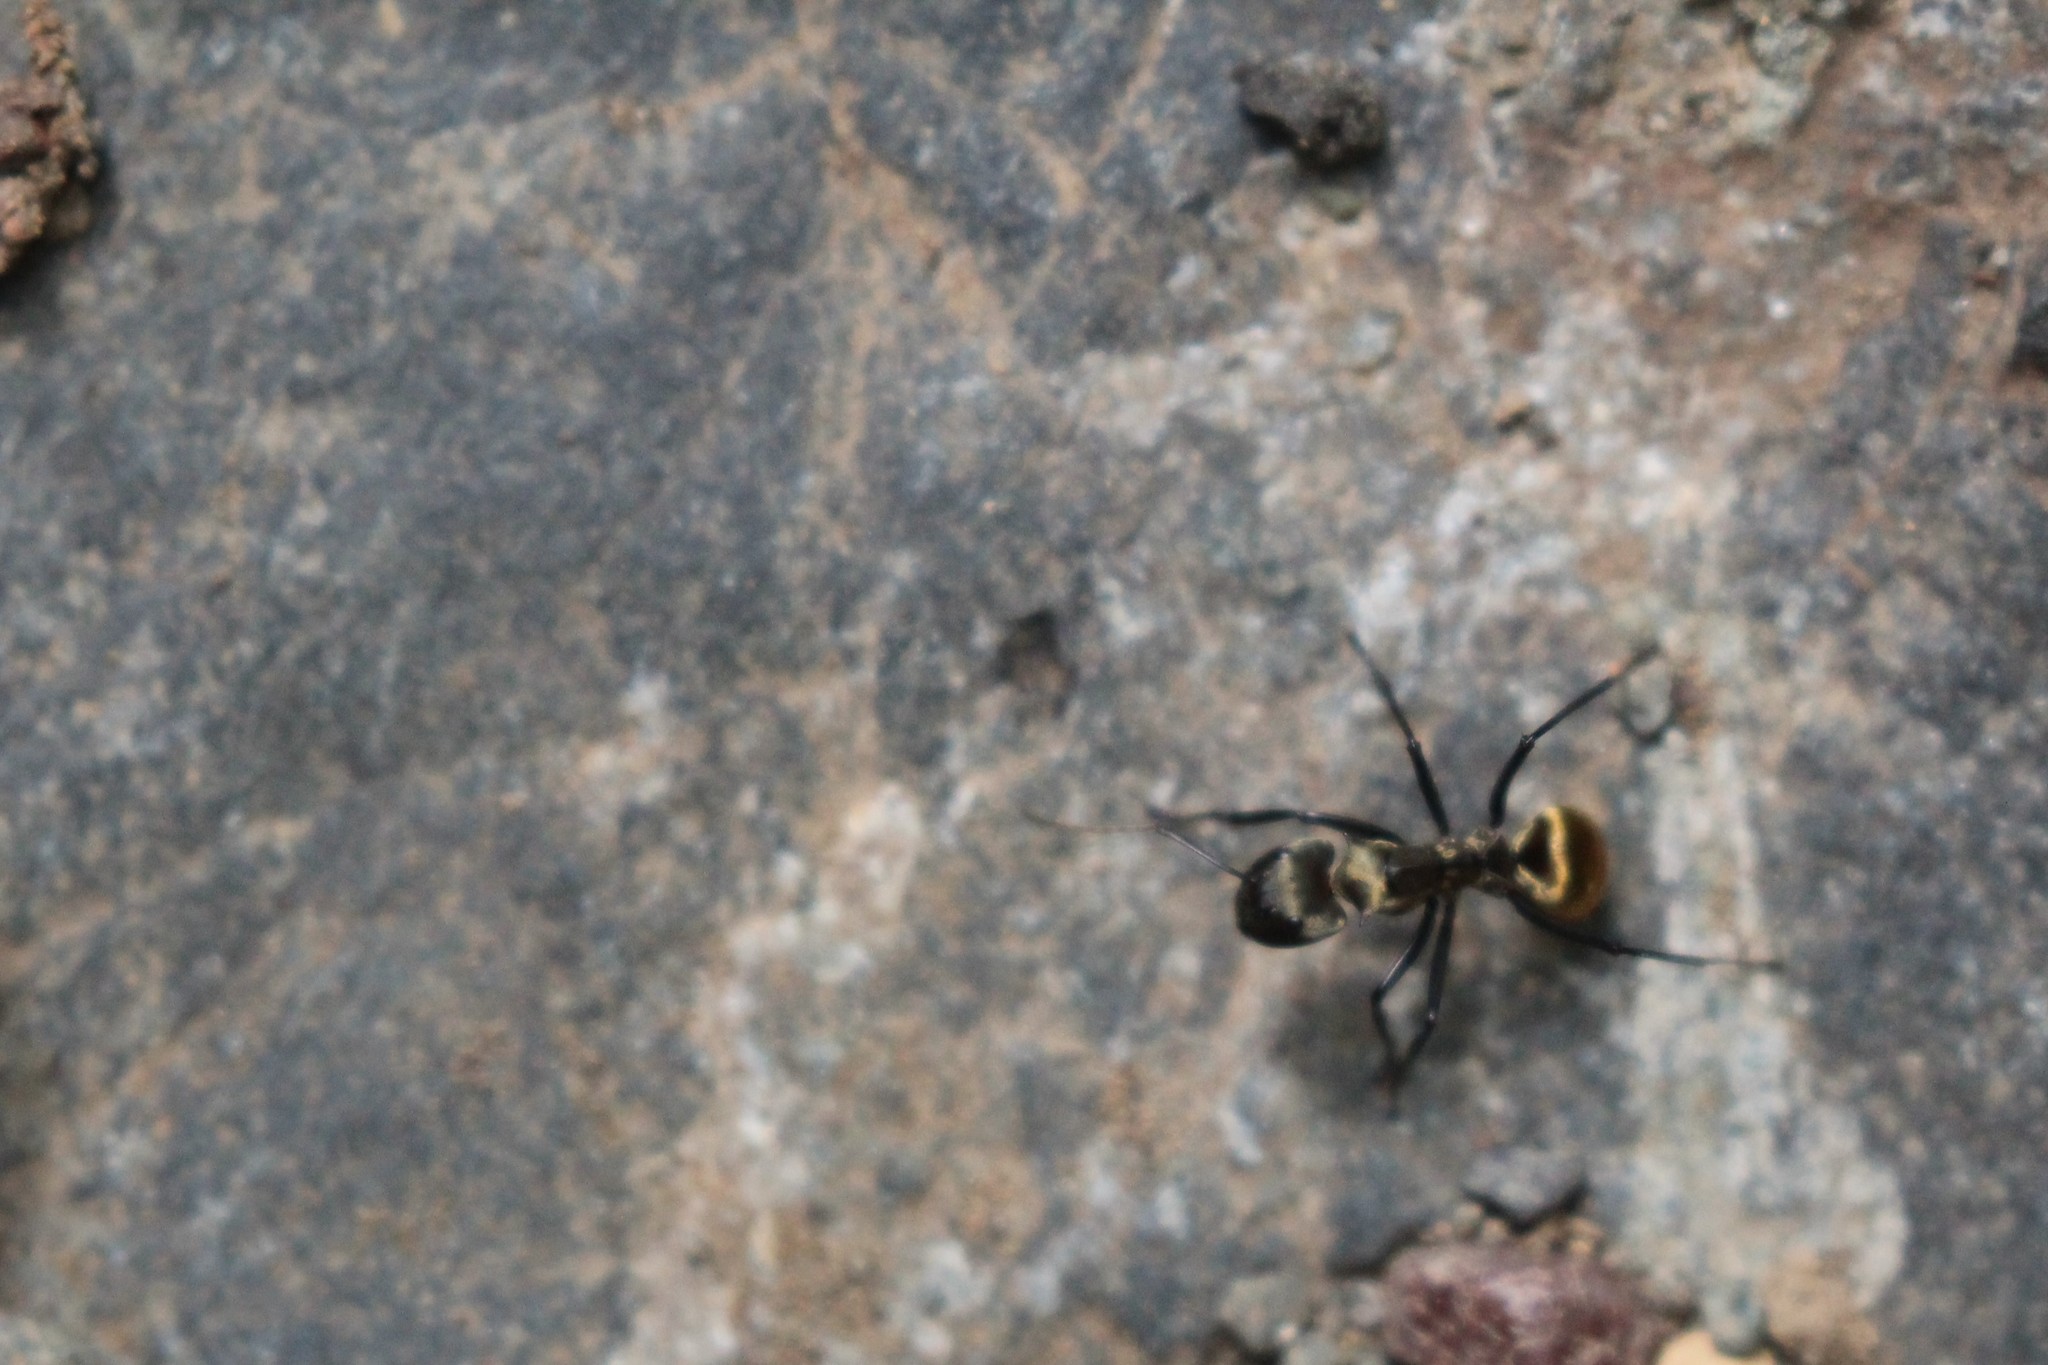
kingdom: Animalia
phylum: Arthropoda
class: Insecta
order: Hymenoptera
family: Formicidae
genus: Camponotus
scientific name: Camponotus sericeiventris
